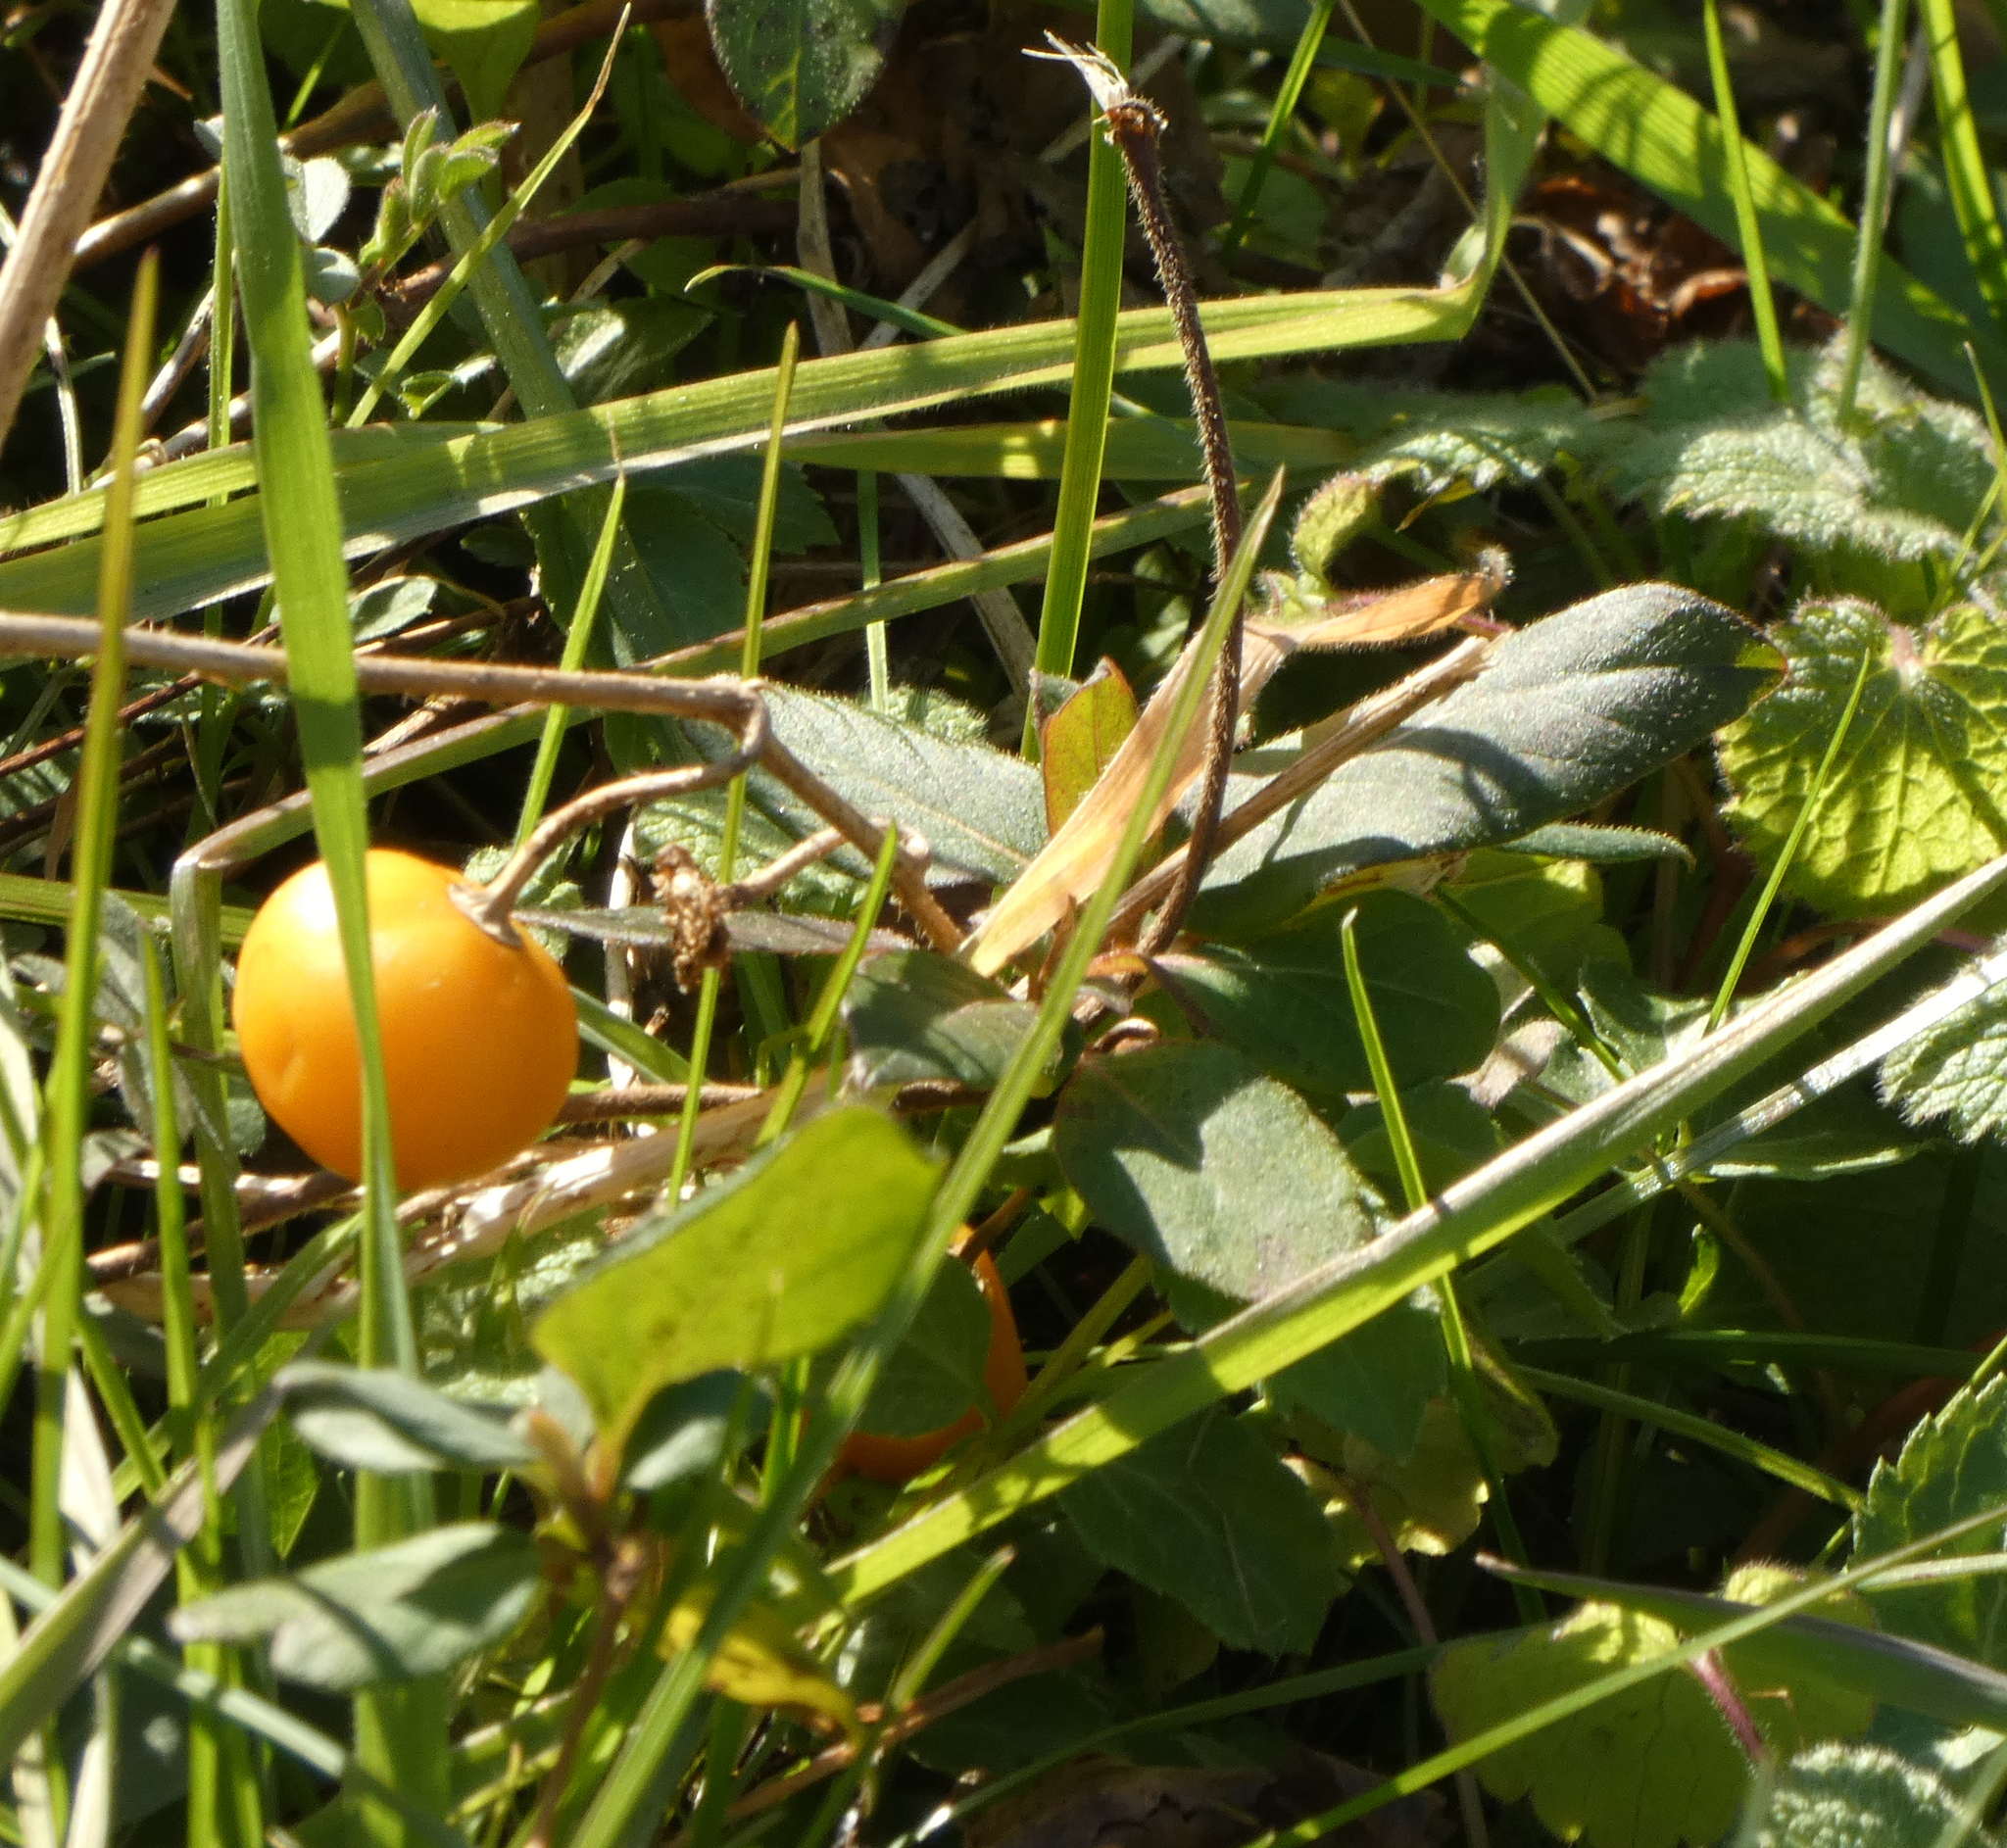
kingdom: Plantae
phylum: Tracheophyta
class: Magnoliopsida
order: Solanales
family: Solanaceae
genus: Solanum
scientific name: Solanum carolinense
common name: Horse-nettle
